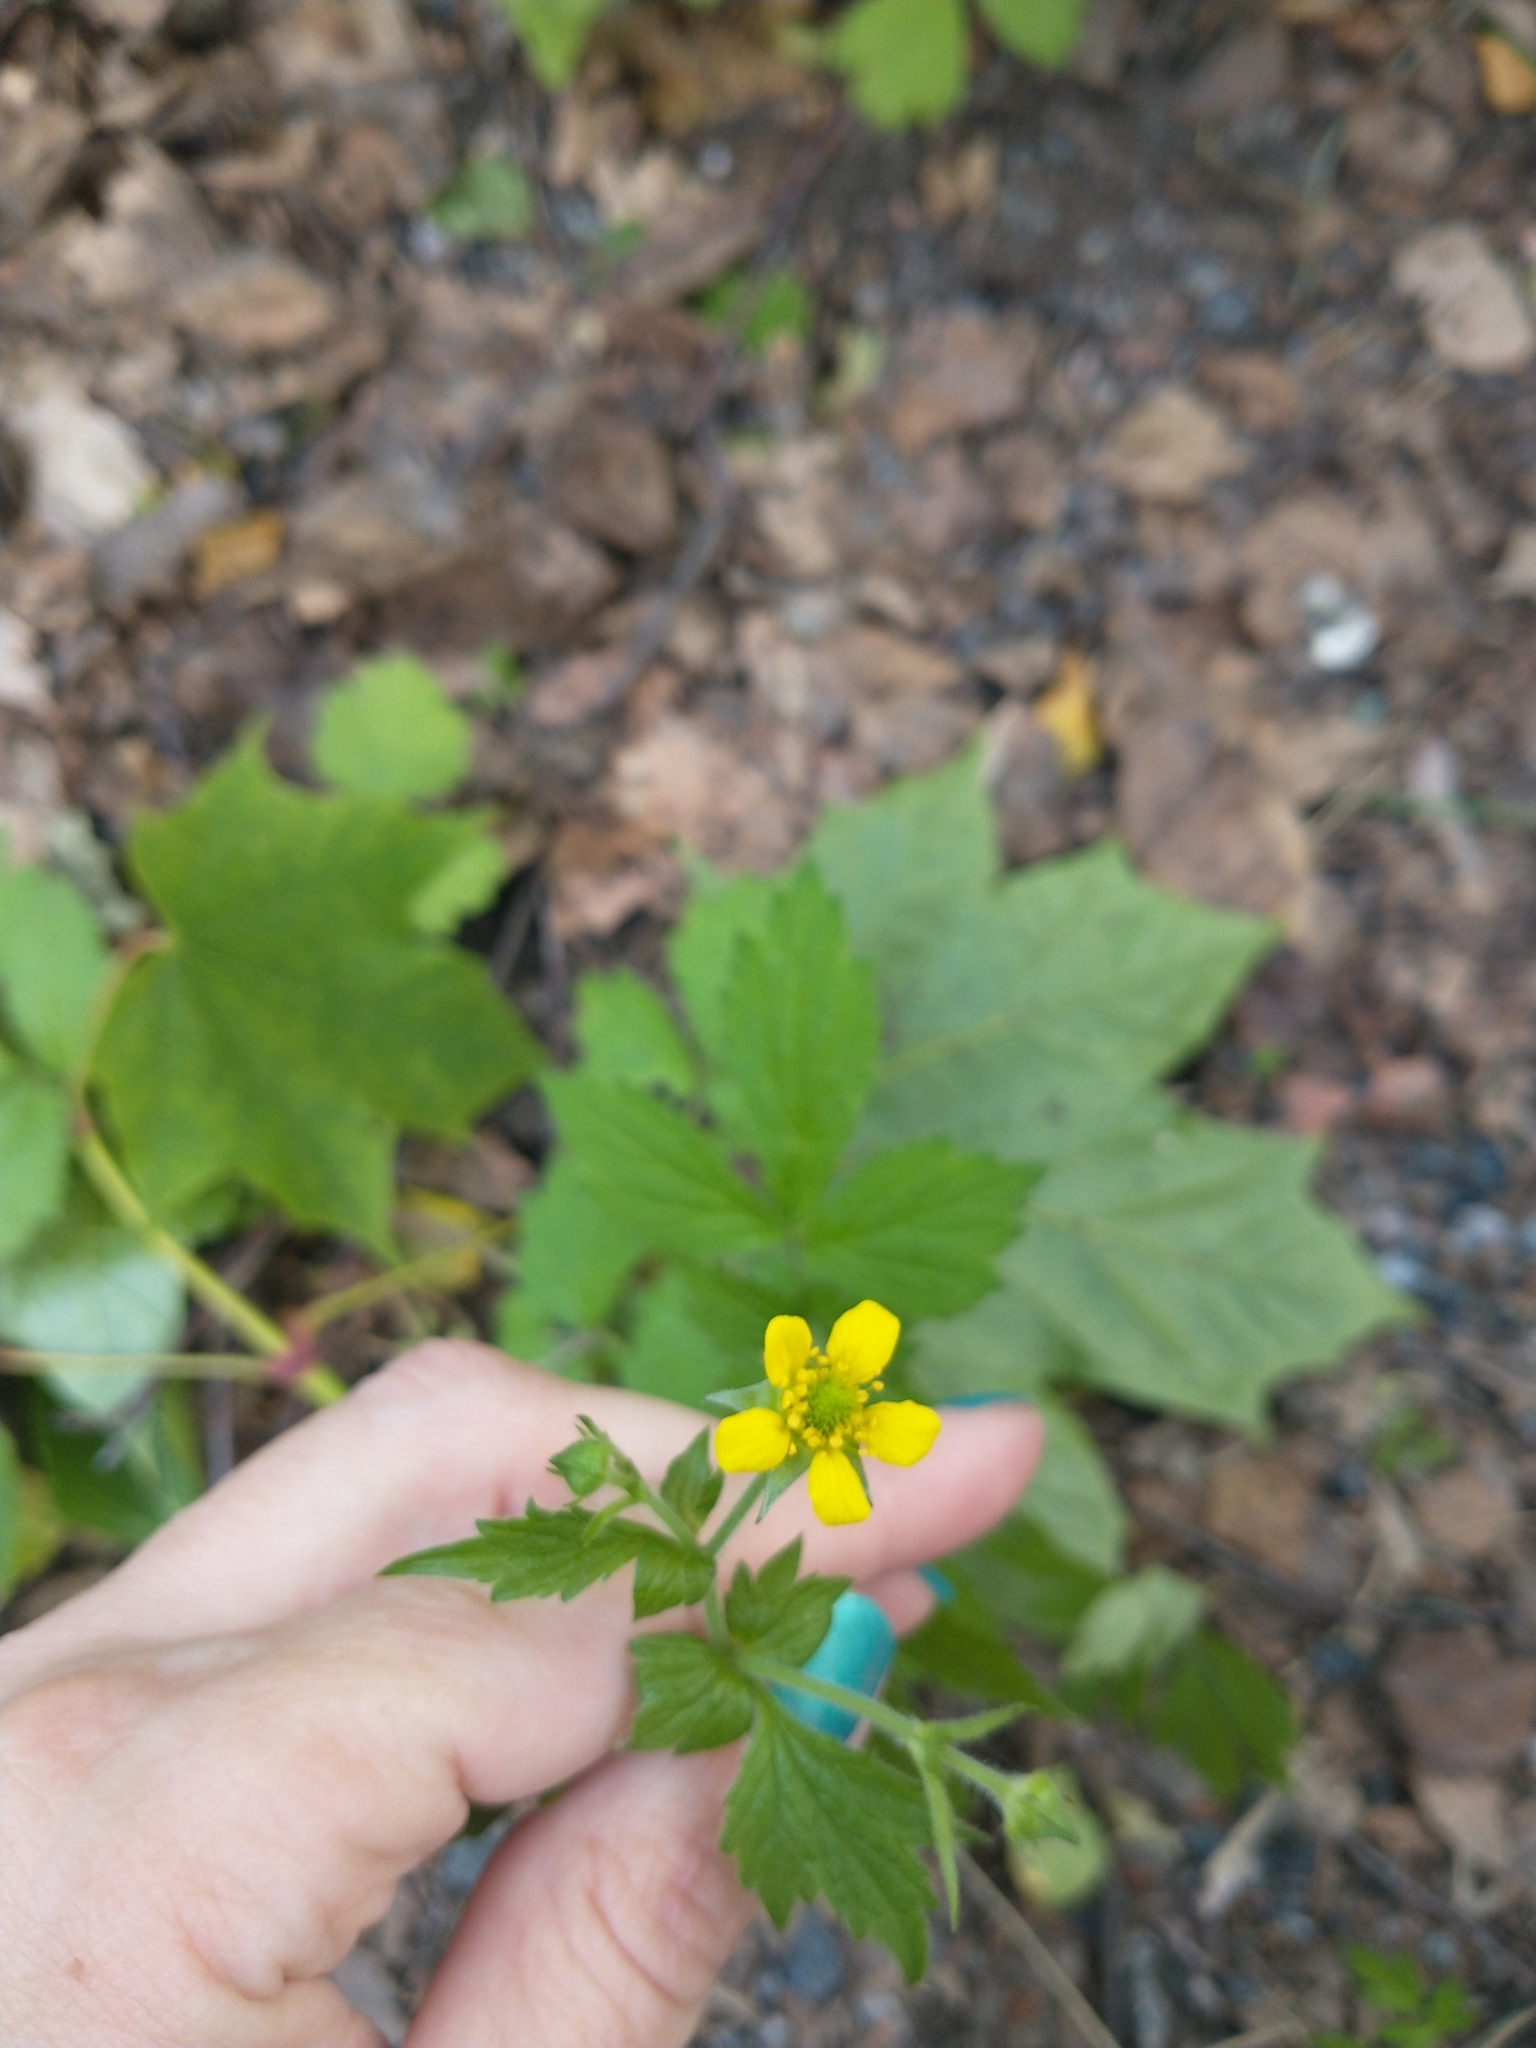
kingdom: Plantae
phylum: Tracheophyta
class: Magnoliopsida
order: Rosales
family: Rosaceae
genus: Geum
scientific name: Geum urbanum
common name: Wood avens
